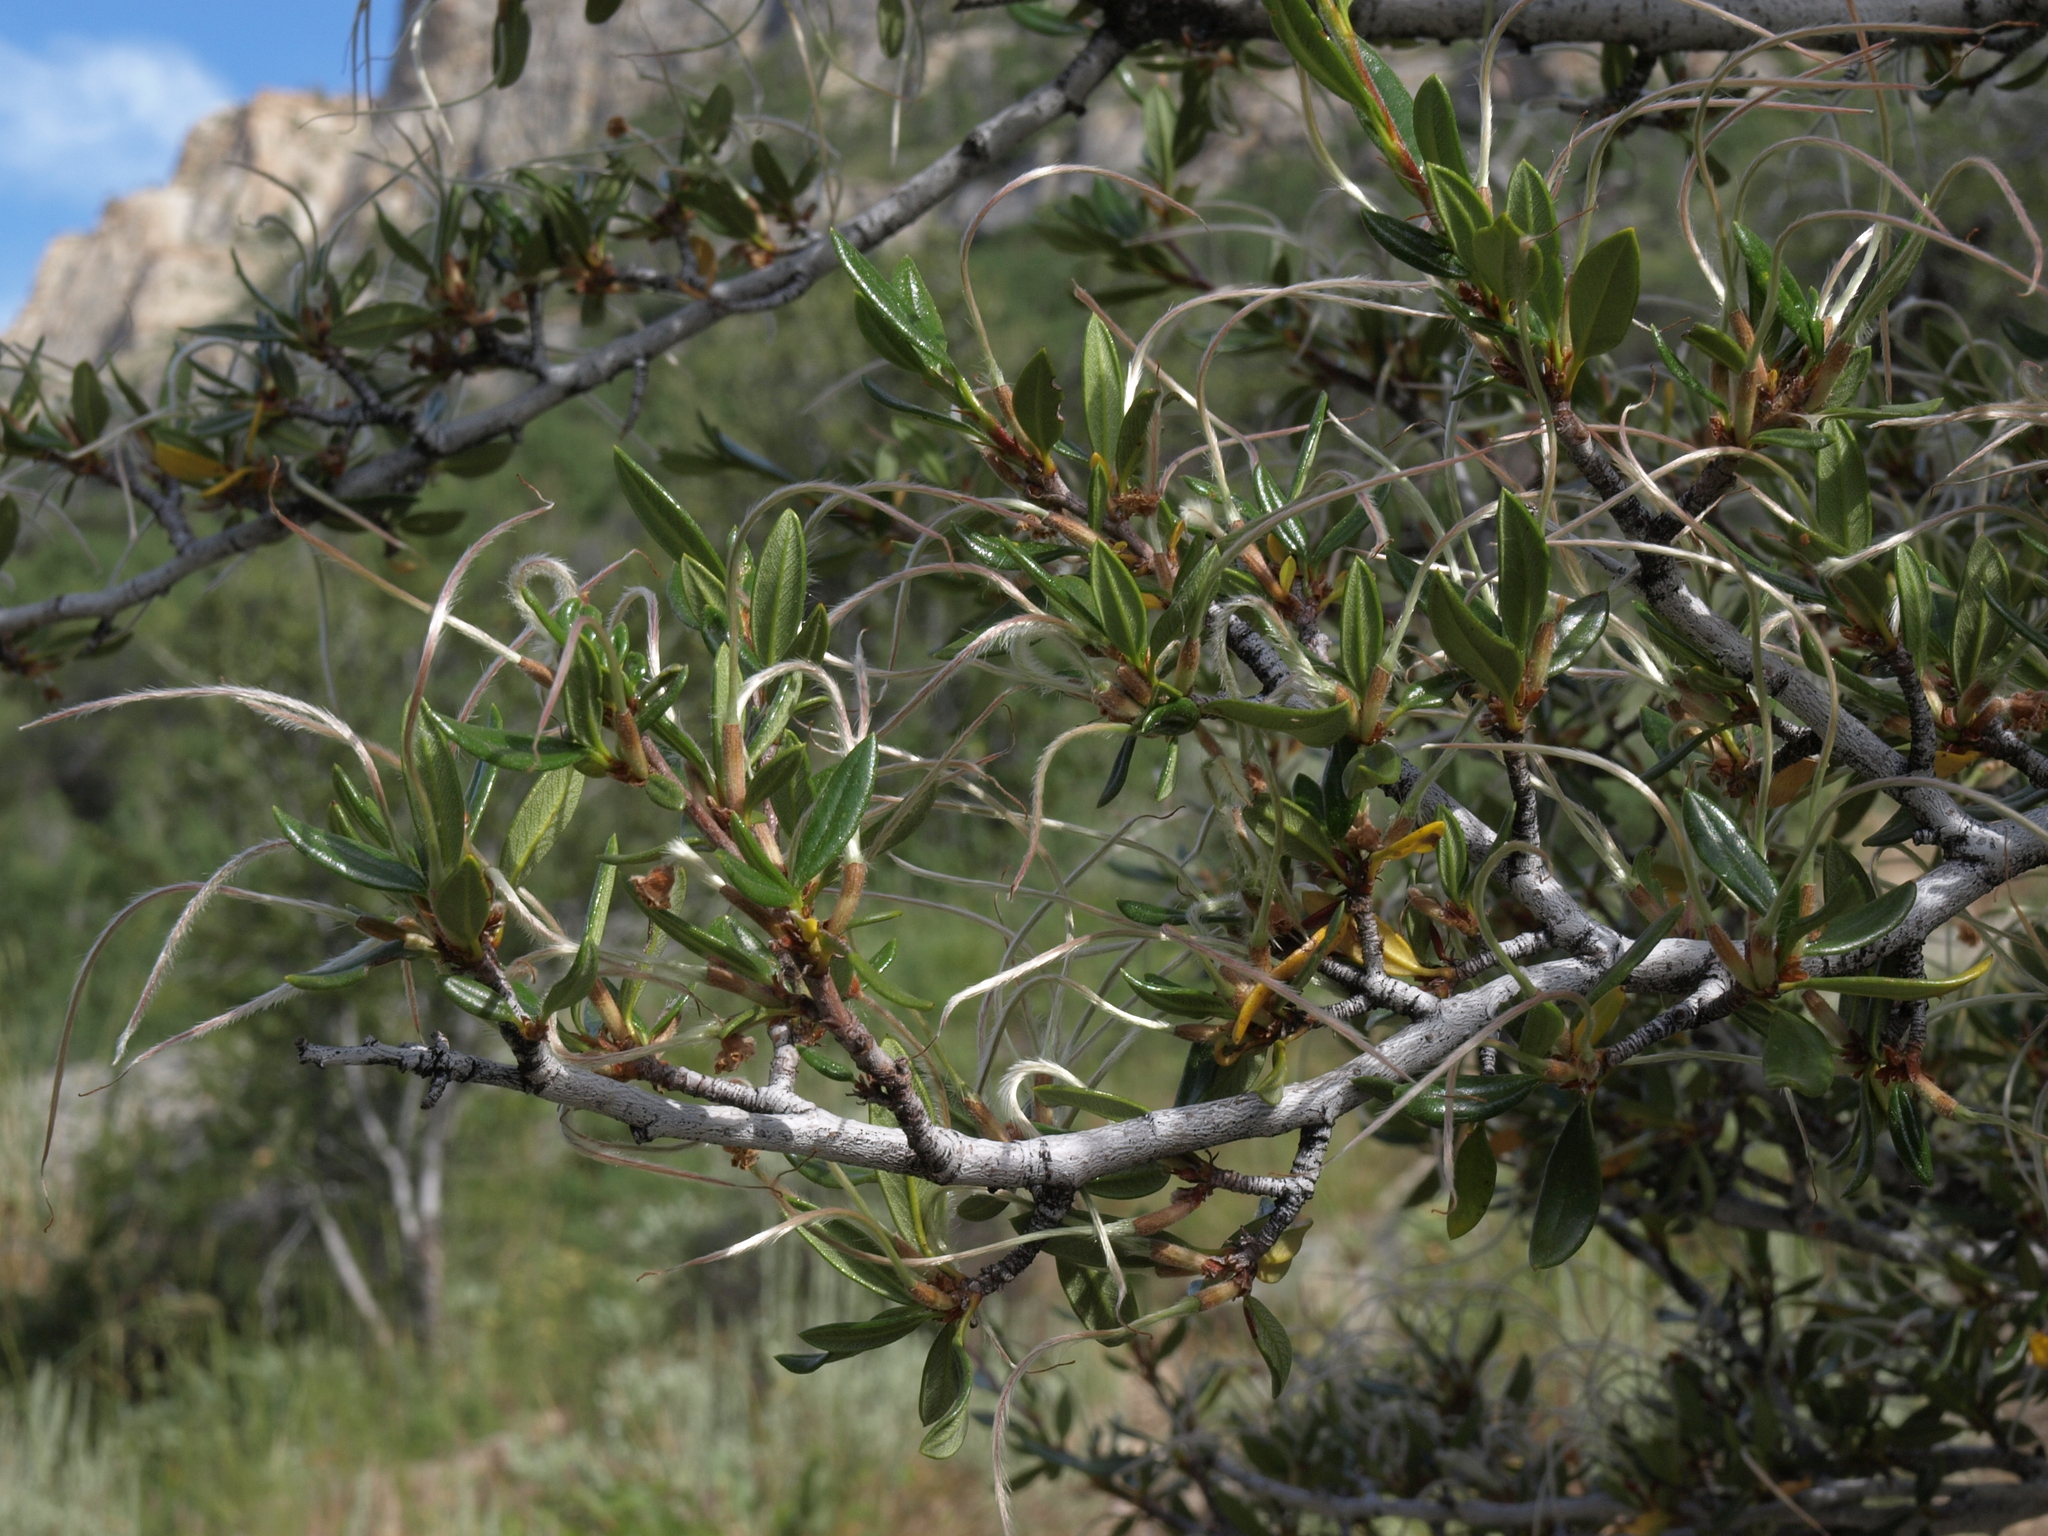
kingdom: Plantae
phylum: Tracheophyta
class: Magnoliopsida
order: Rosales
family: Rosaceae
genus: Cercocarpus
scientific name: Cercocarpus ledifolius
